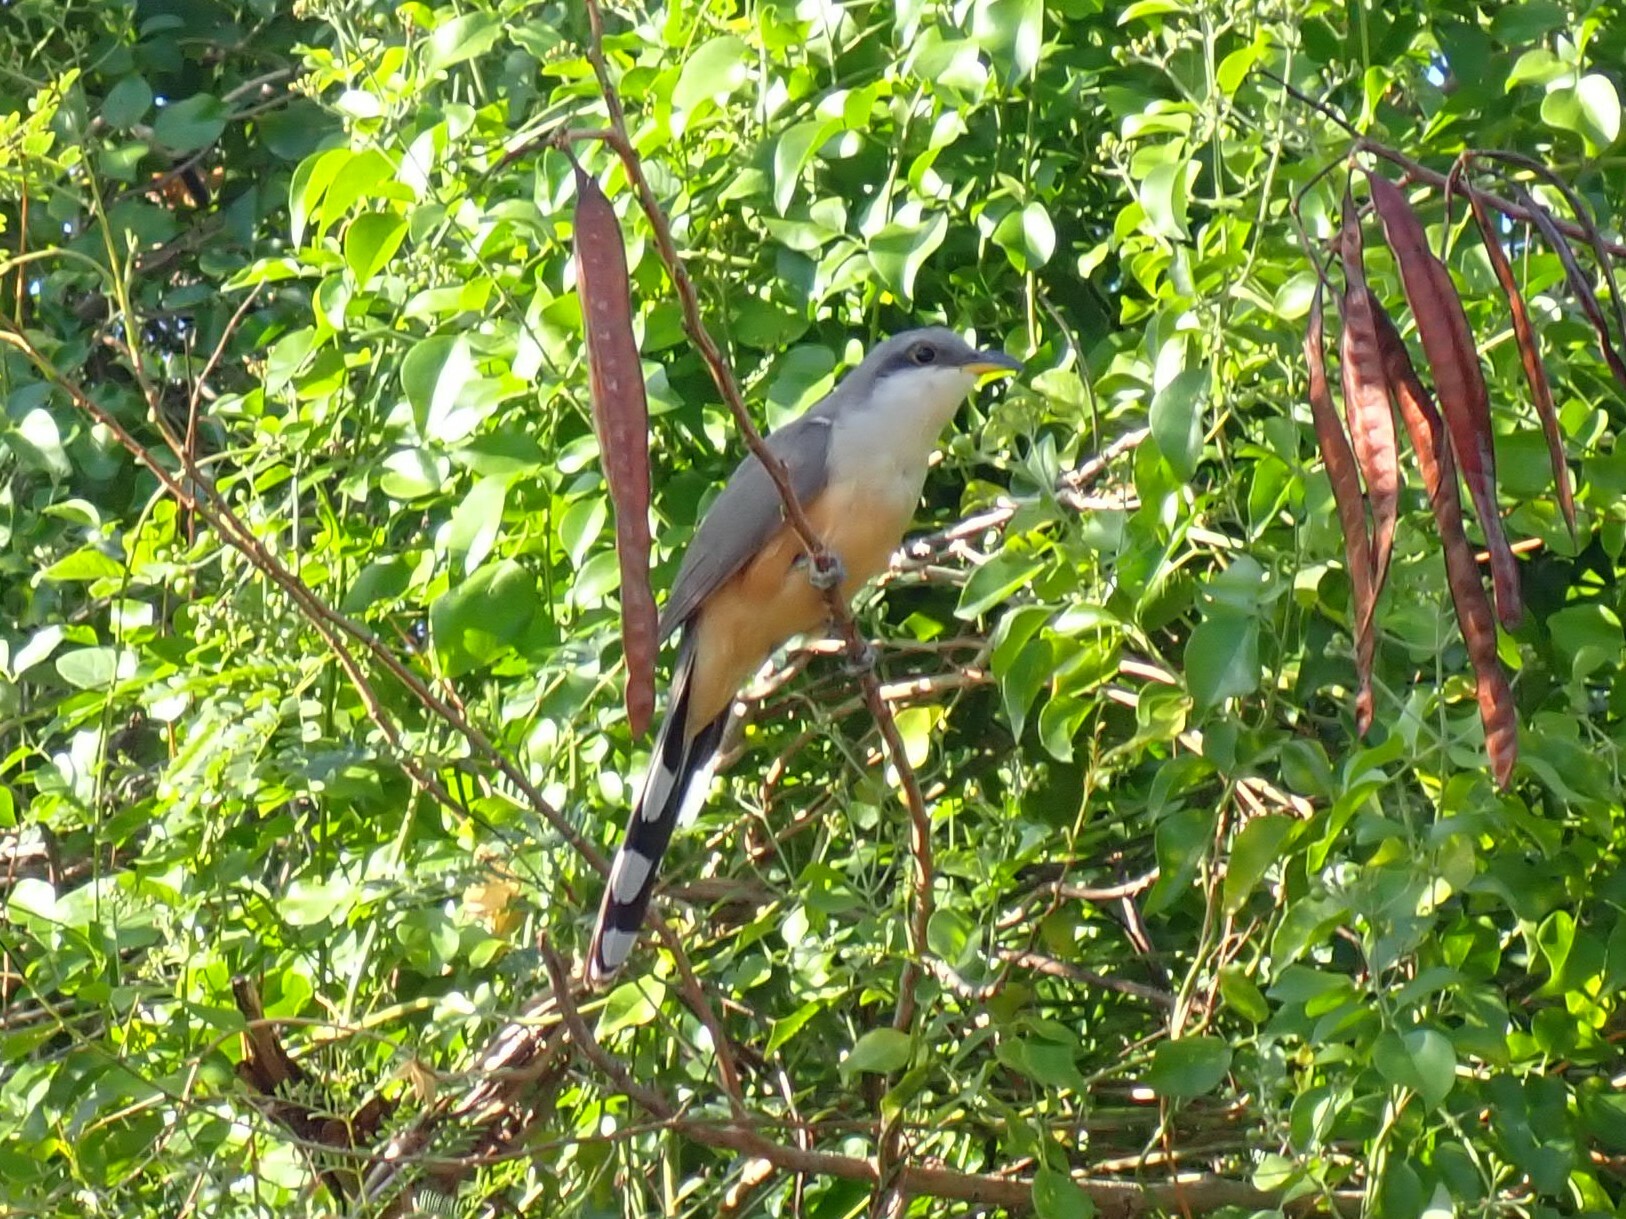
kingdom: Animalia
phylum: Chordata
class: Aves
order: Cuculiformes
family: Cuculidae
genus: Coccyzus
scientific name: Coccyzus minor
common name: Mangrove cuckoo
